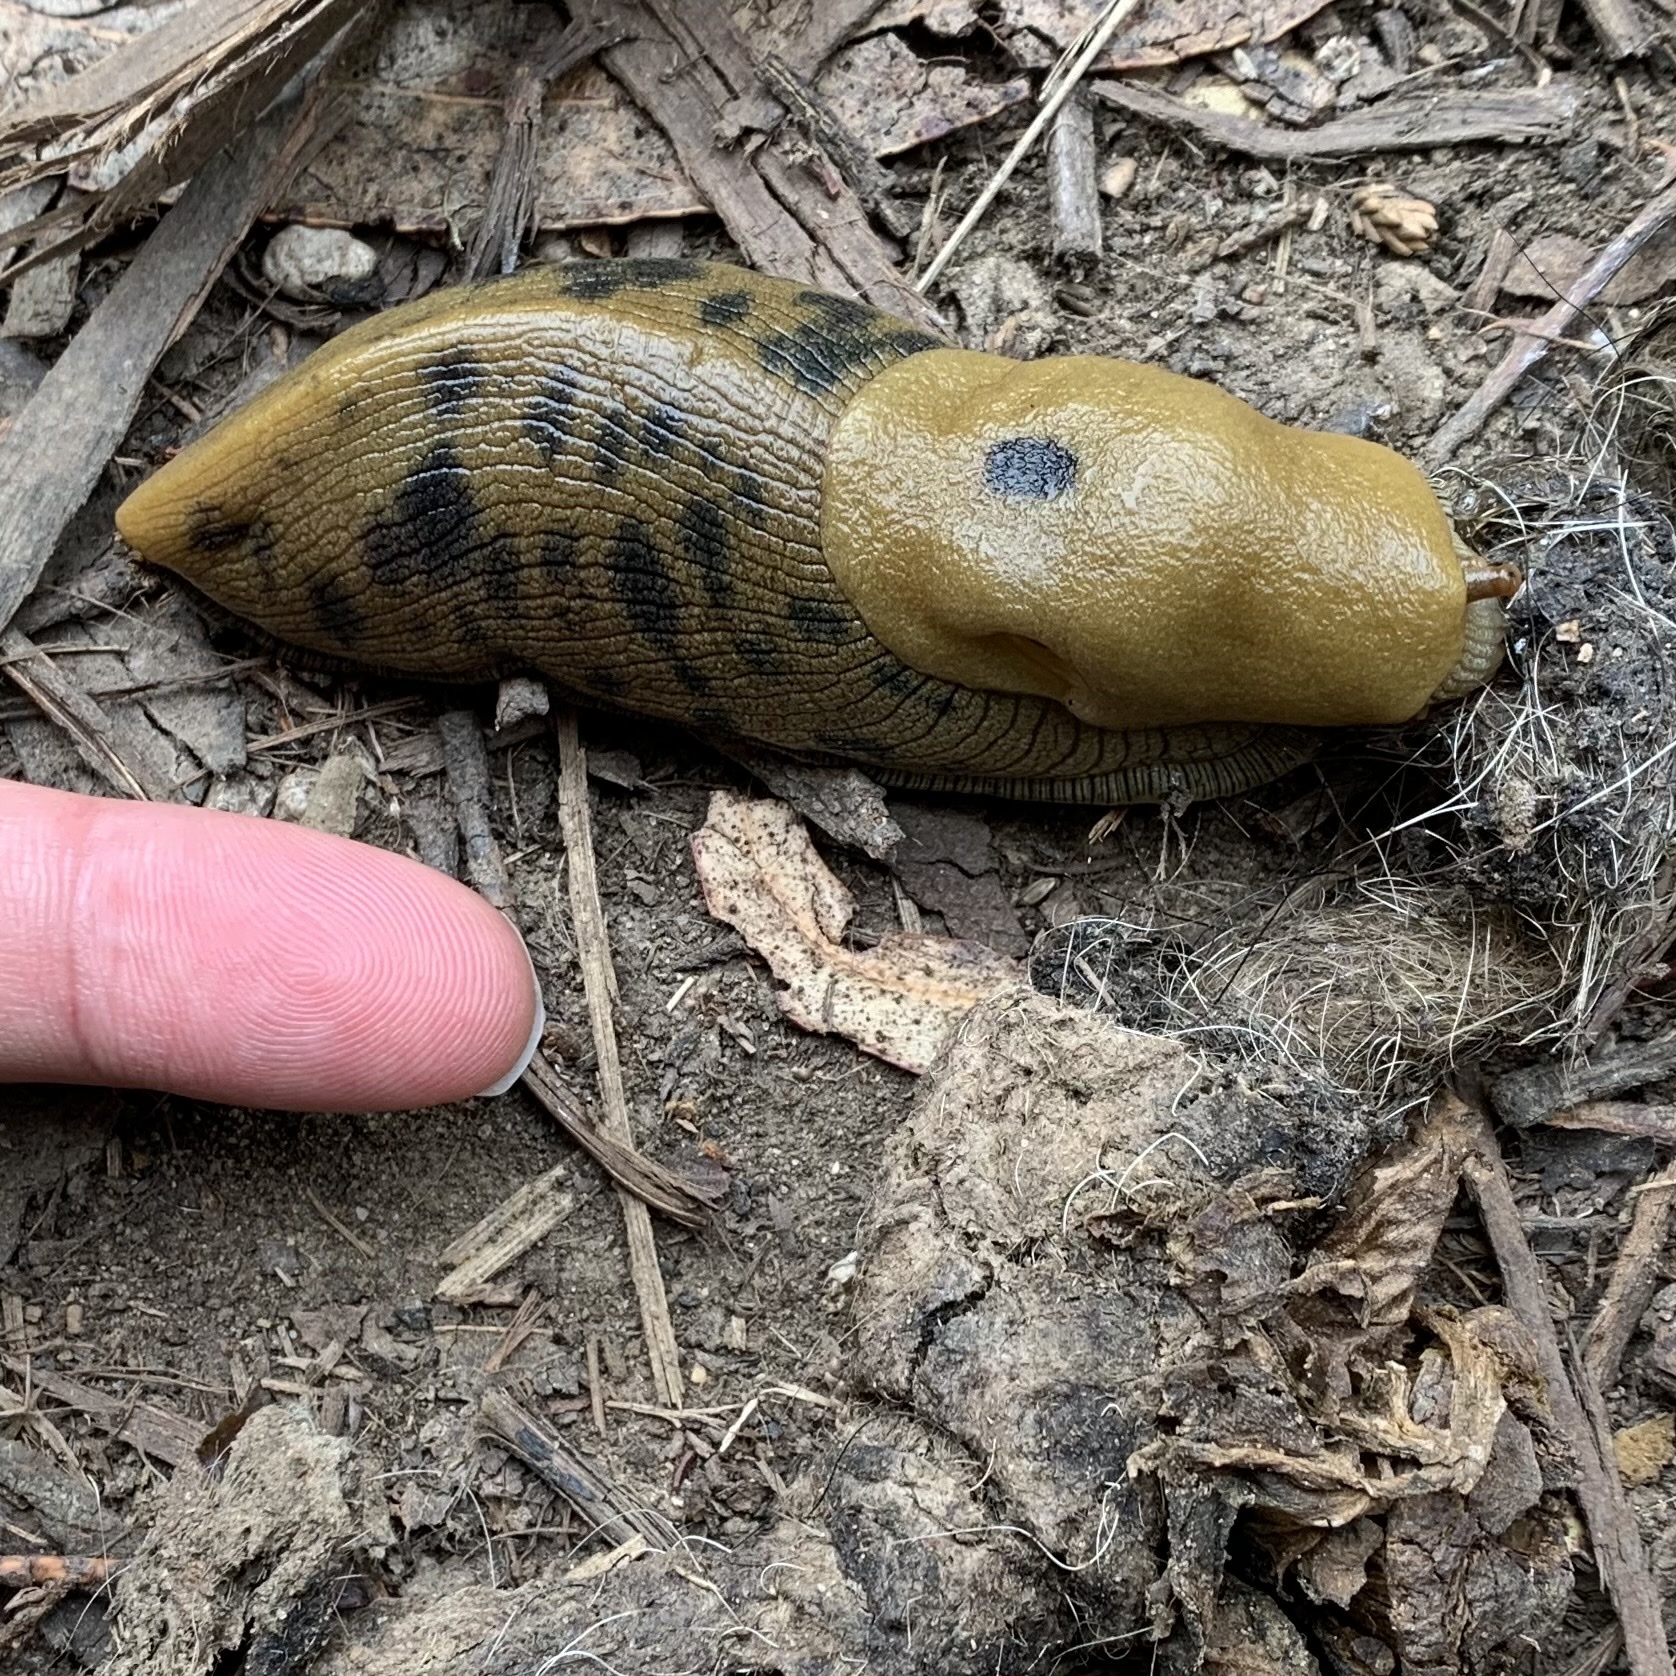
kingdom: Animalia
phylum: Mollusca
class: Gastropoda
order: Stylommatophora
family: Ariolimacidae
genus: Ariolimax
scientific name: Ariolimax buttoni
